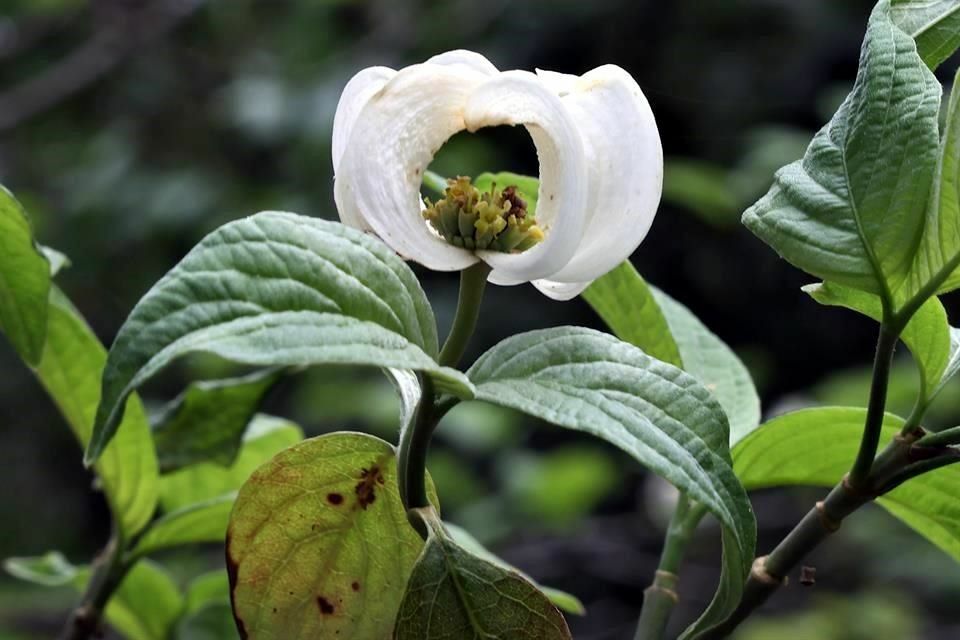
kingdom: Plantae
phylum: Tracheophyta
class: Magnoliopsida
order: Cornales
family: Cornaceae
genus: Cornus
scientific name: Cornus florida
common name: Flowering dogwood
